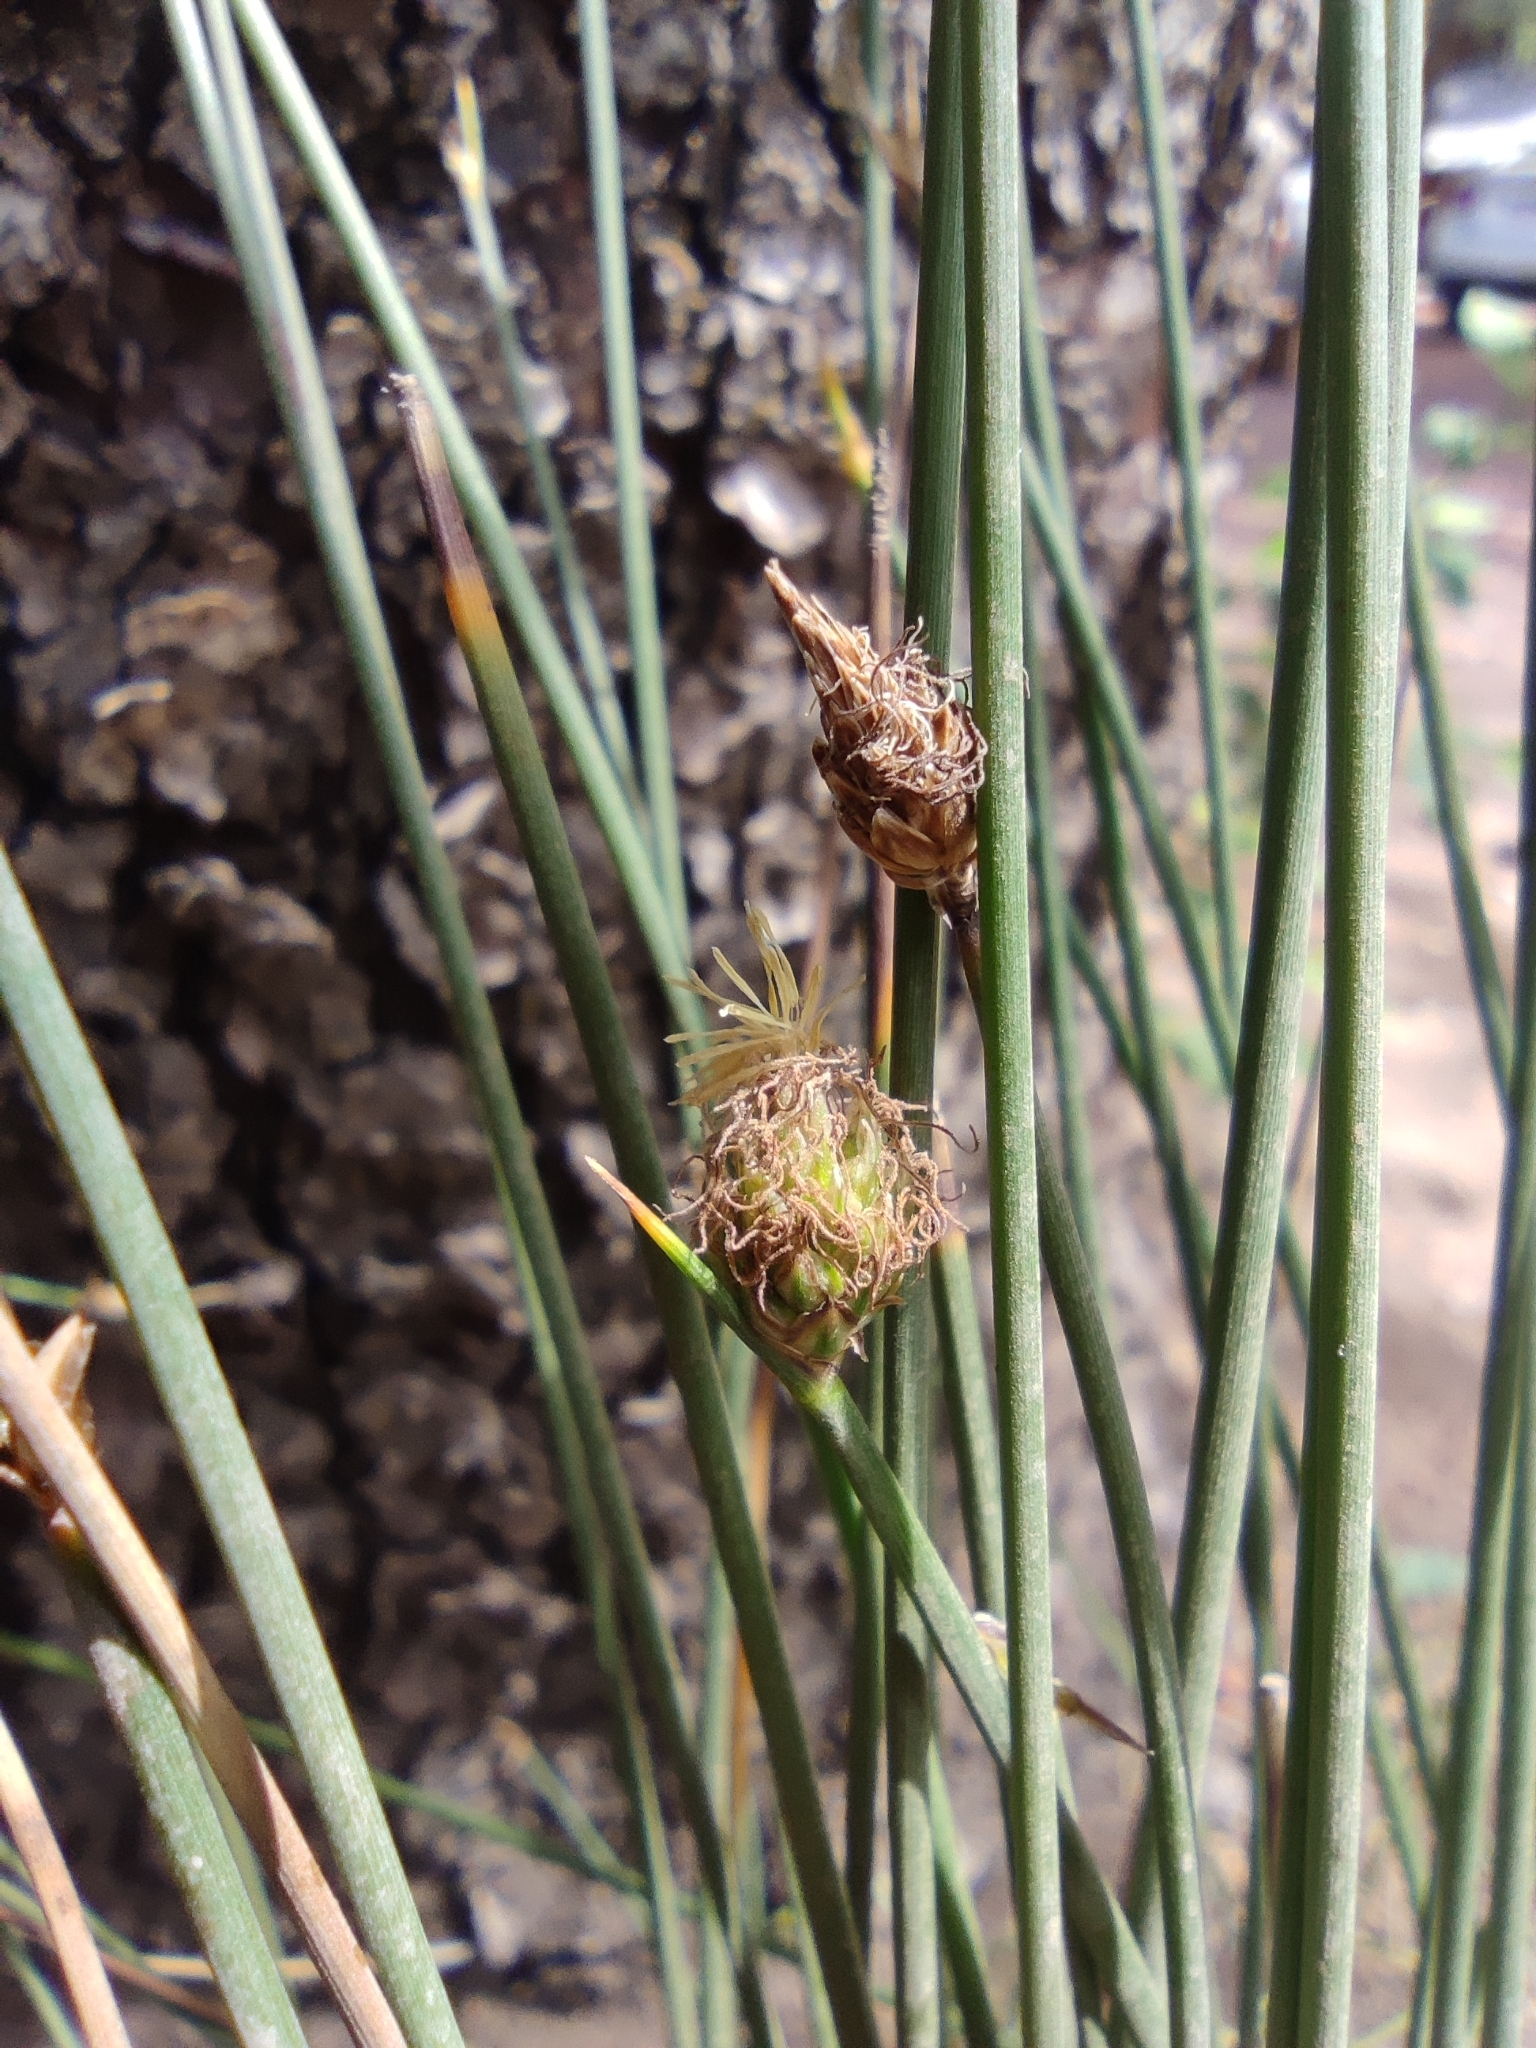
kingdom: Plantae
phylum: Tracheophyta
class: Liliopsida
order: Poales
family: Cyperaceae
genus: Carex
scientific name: Carex aphylla
